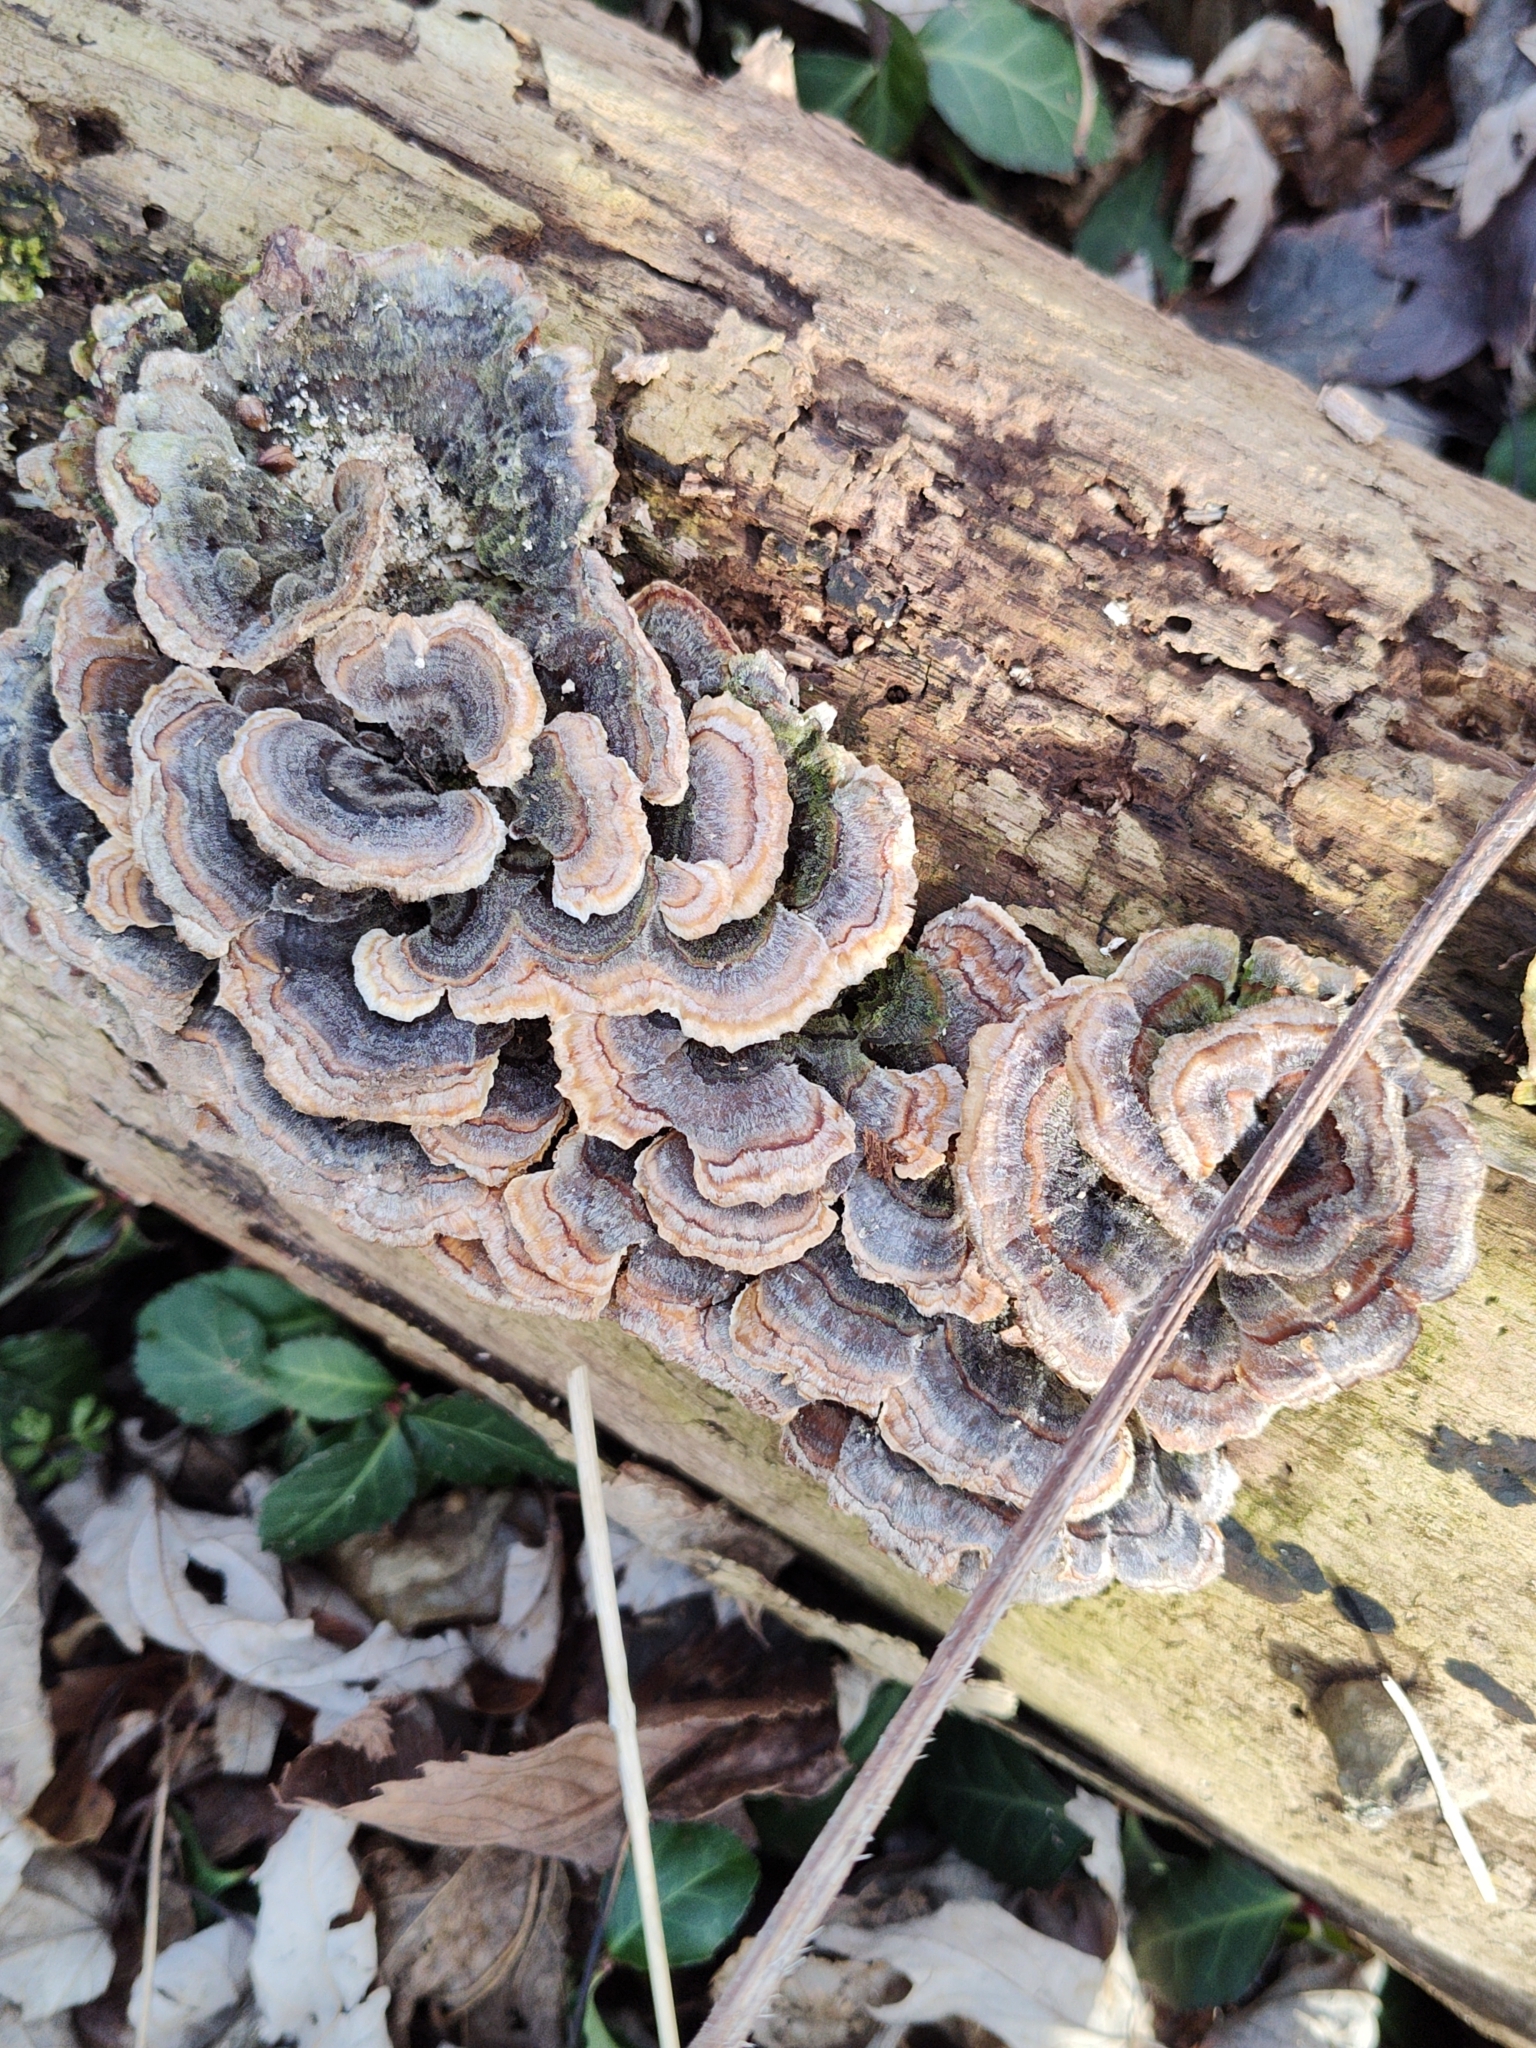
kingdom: Fungi
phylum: Basidiomycota
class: Agaricomycetes
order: Polyporales
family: Polyporaceae
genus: Trametes
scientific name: Trametes versicolor
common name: Turkeytail
